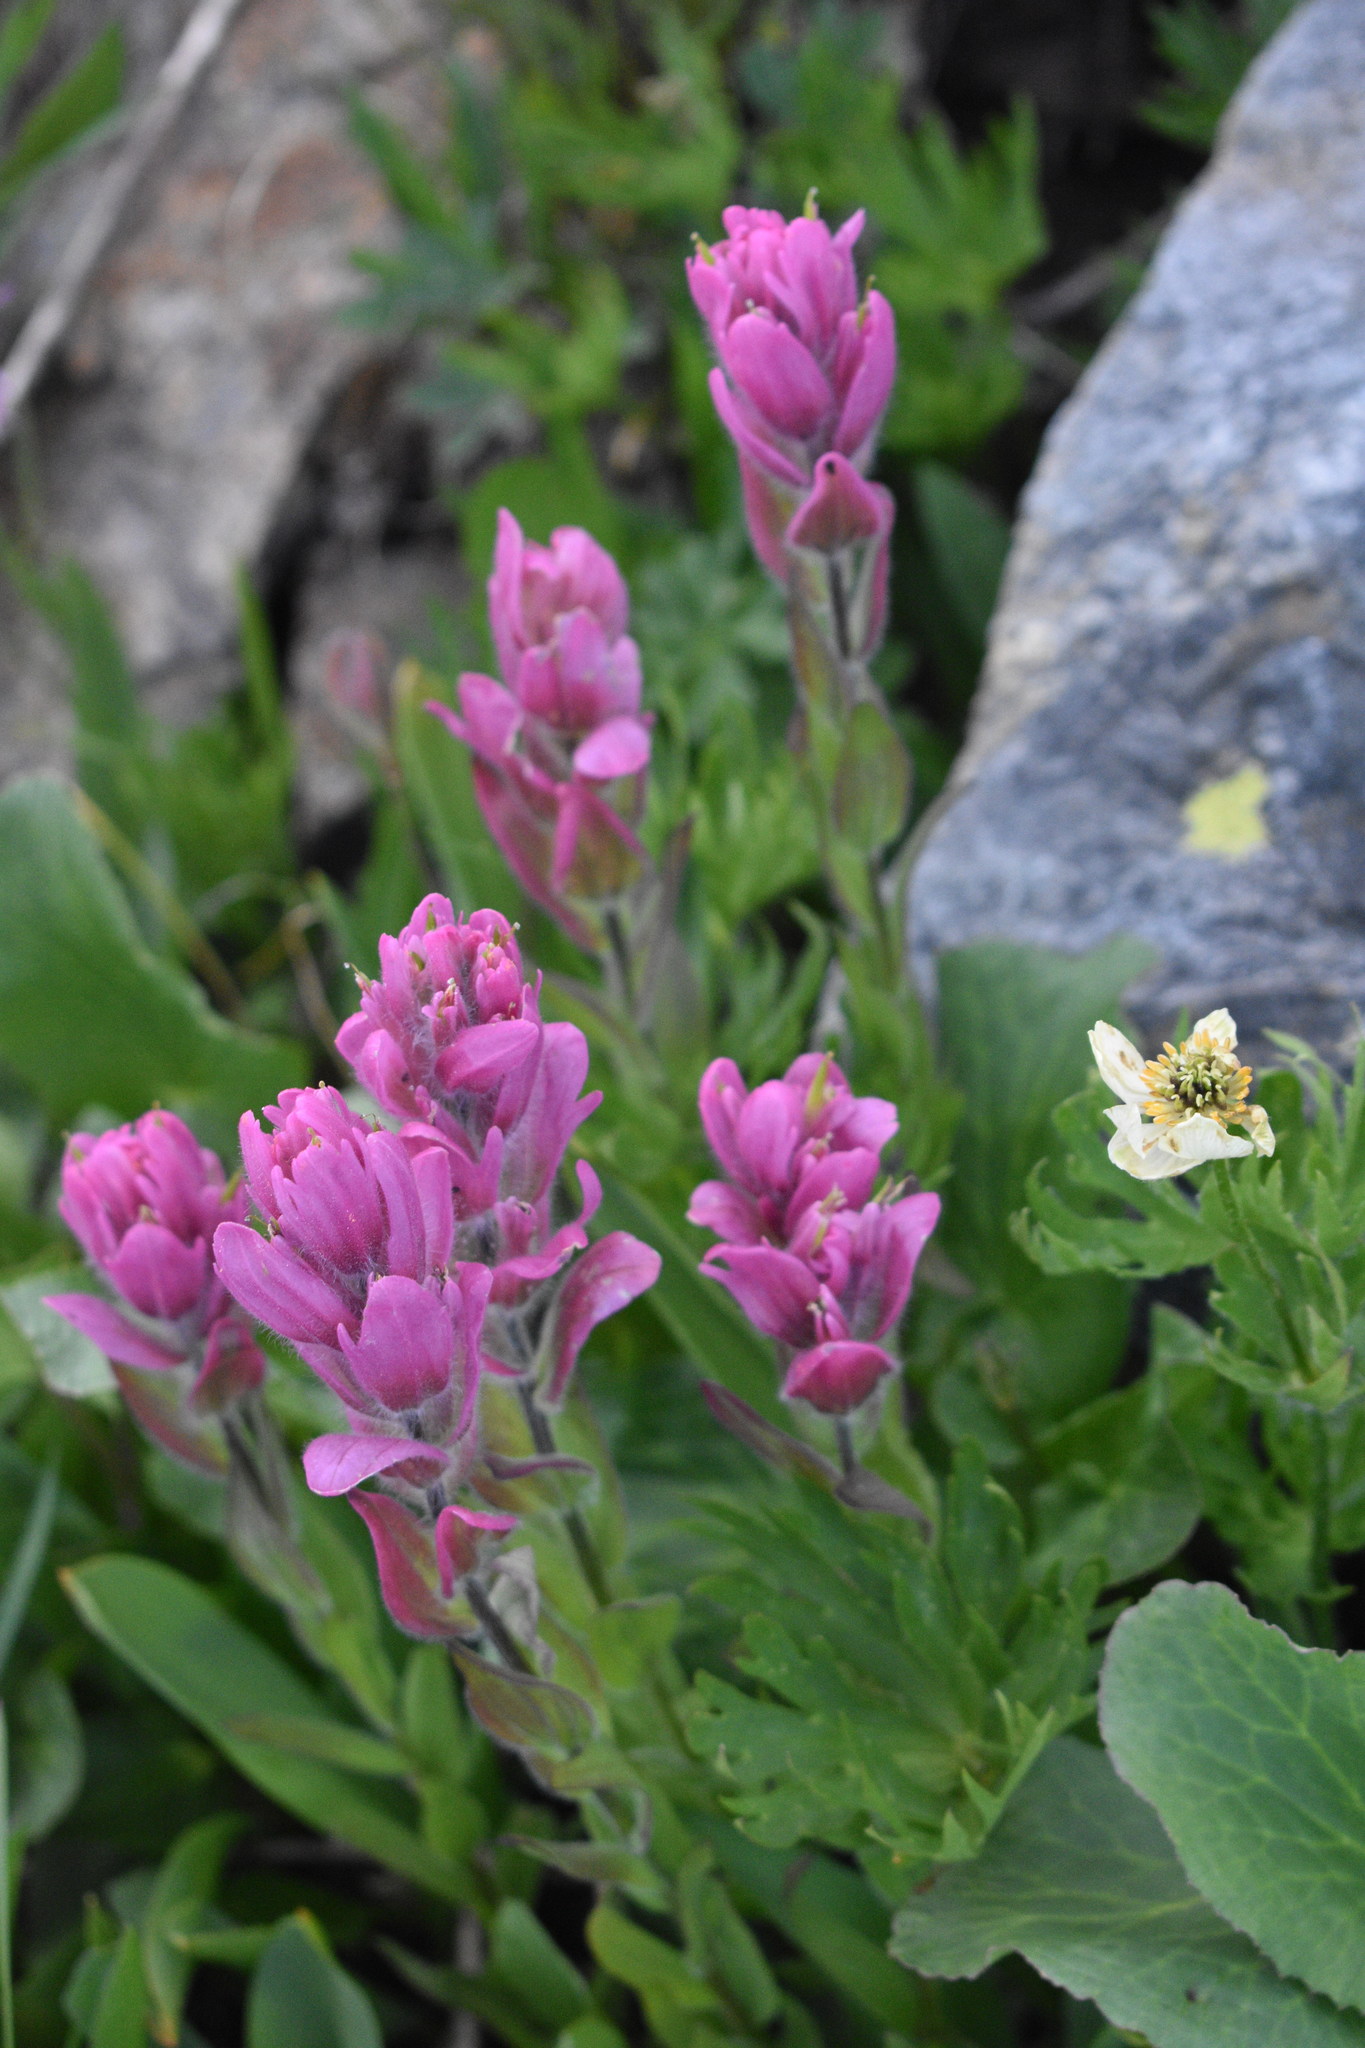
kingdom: Plantae
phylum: Tracheophyta
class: Magnoliopsida
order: Lamiales
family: Orobanchaceae
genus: Castilleja
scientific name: Castilleja rhexifolia
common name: Rocky mountain paintbrush
